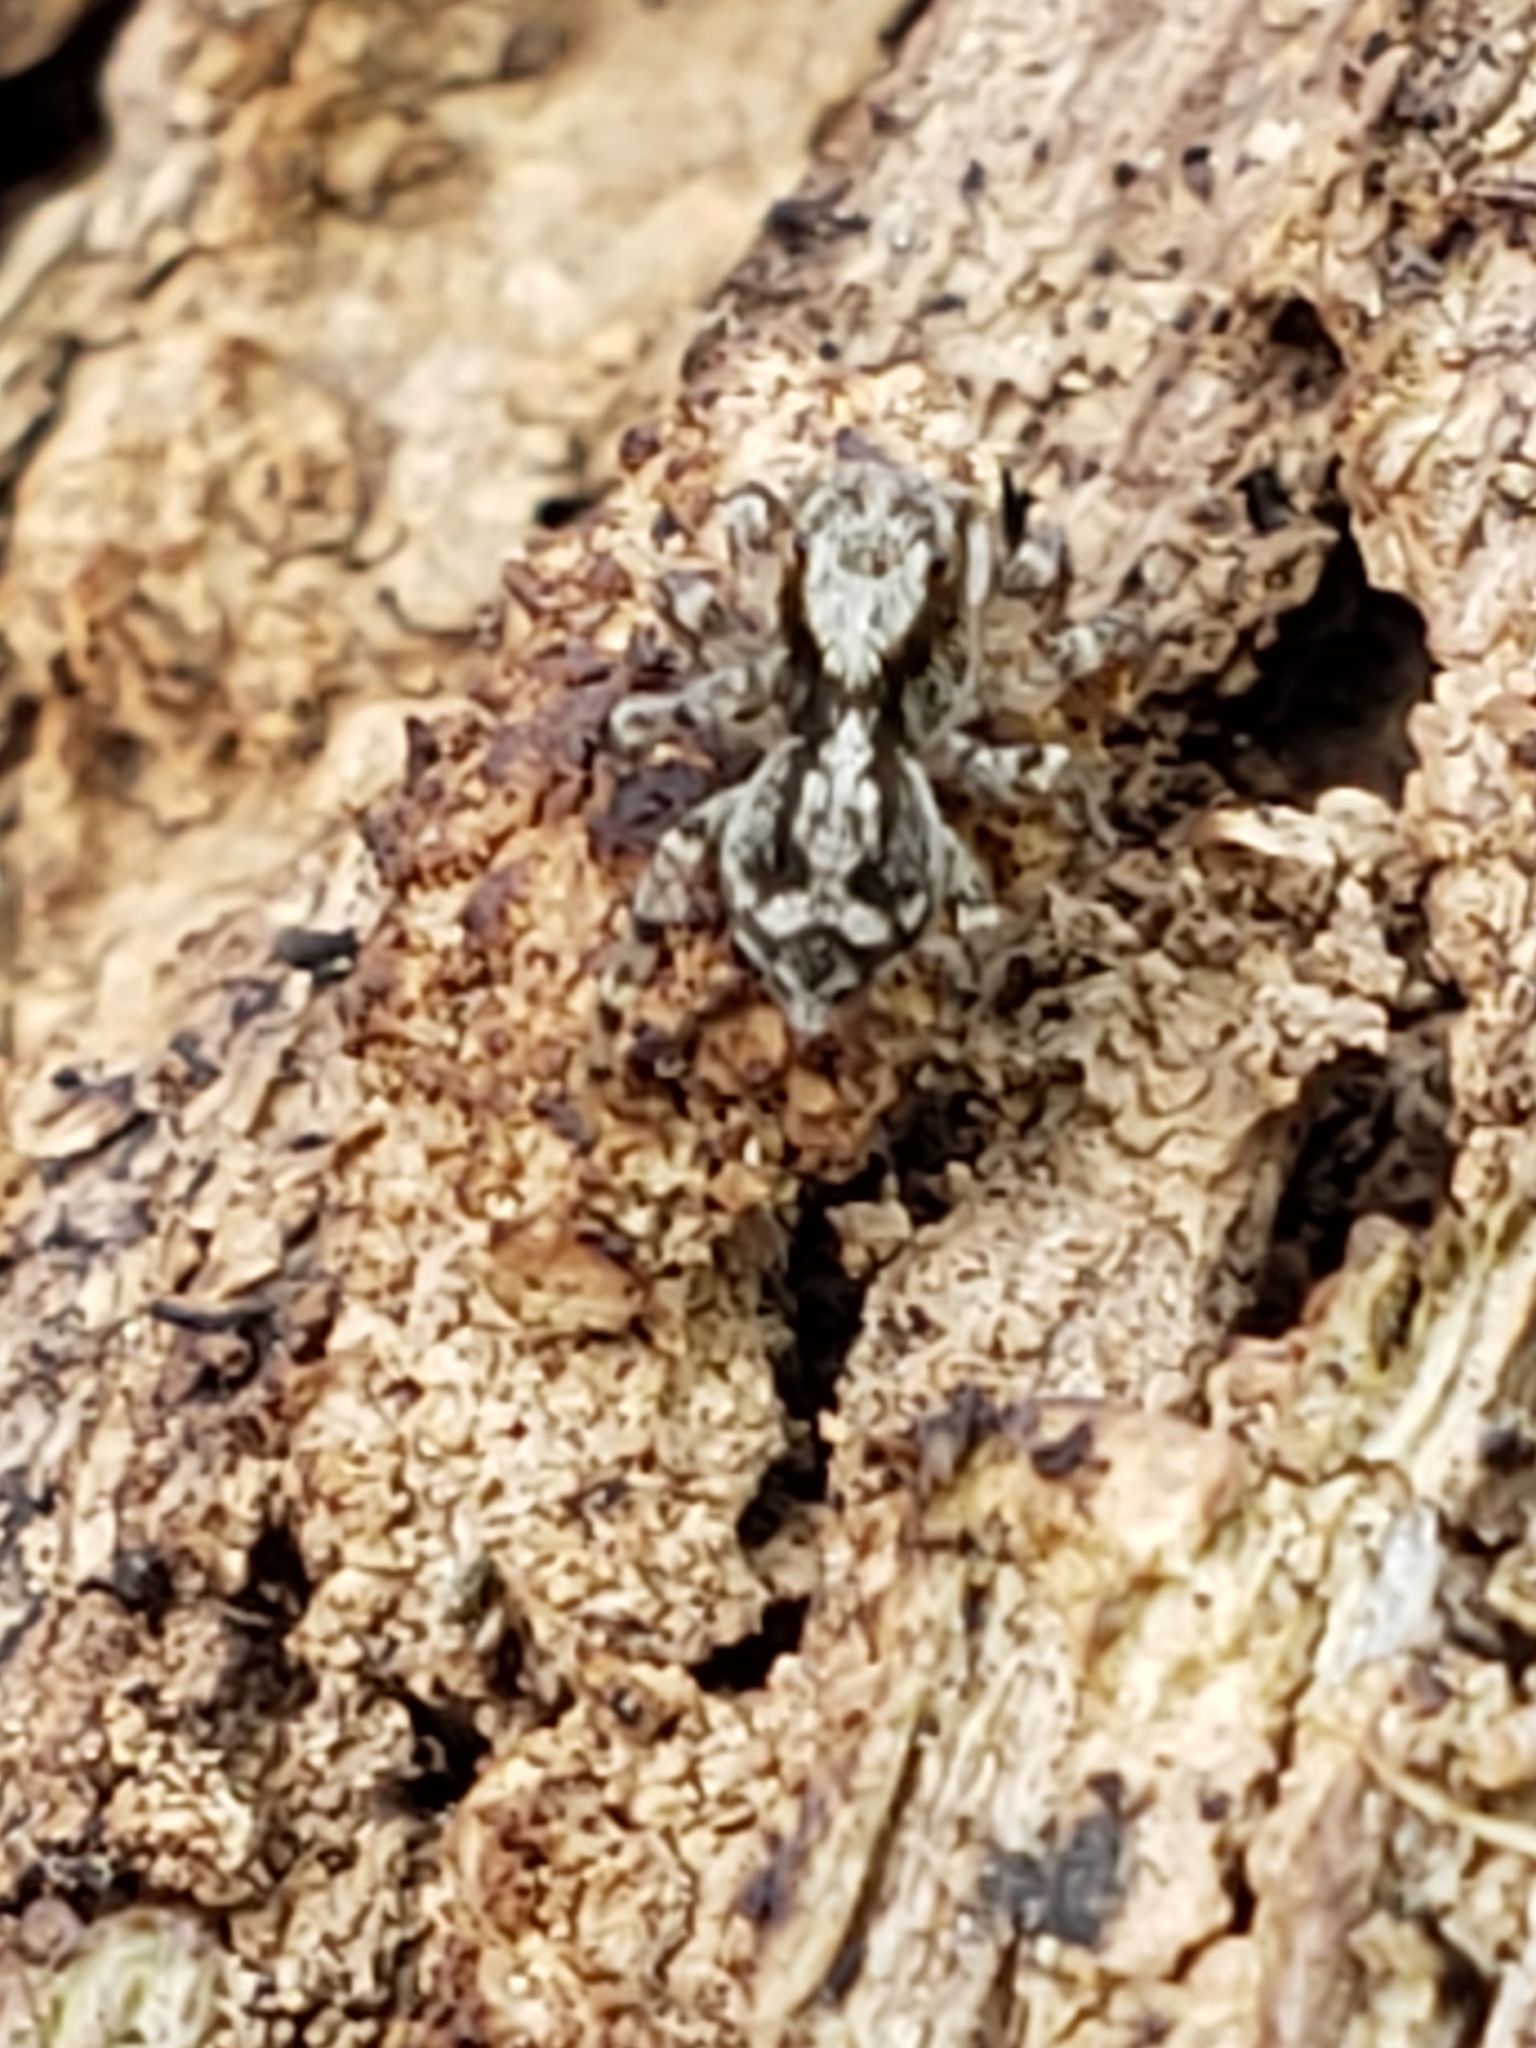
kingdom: Animalia
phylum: Arthropoda
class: Arachnida
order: Araneae
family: Salticidae
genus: Naphrys
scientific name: Naphrys pulex
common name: Flea jumping spider
